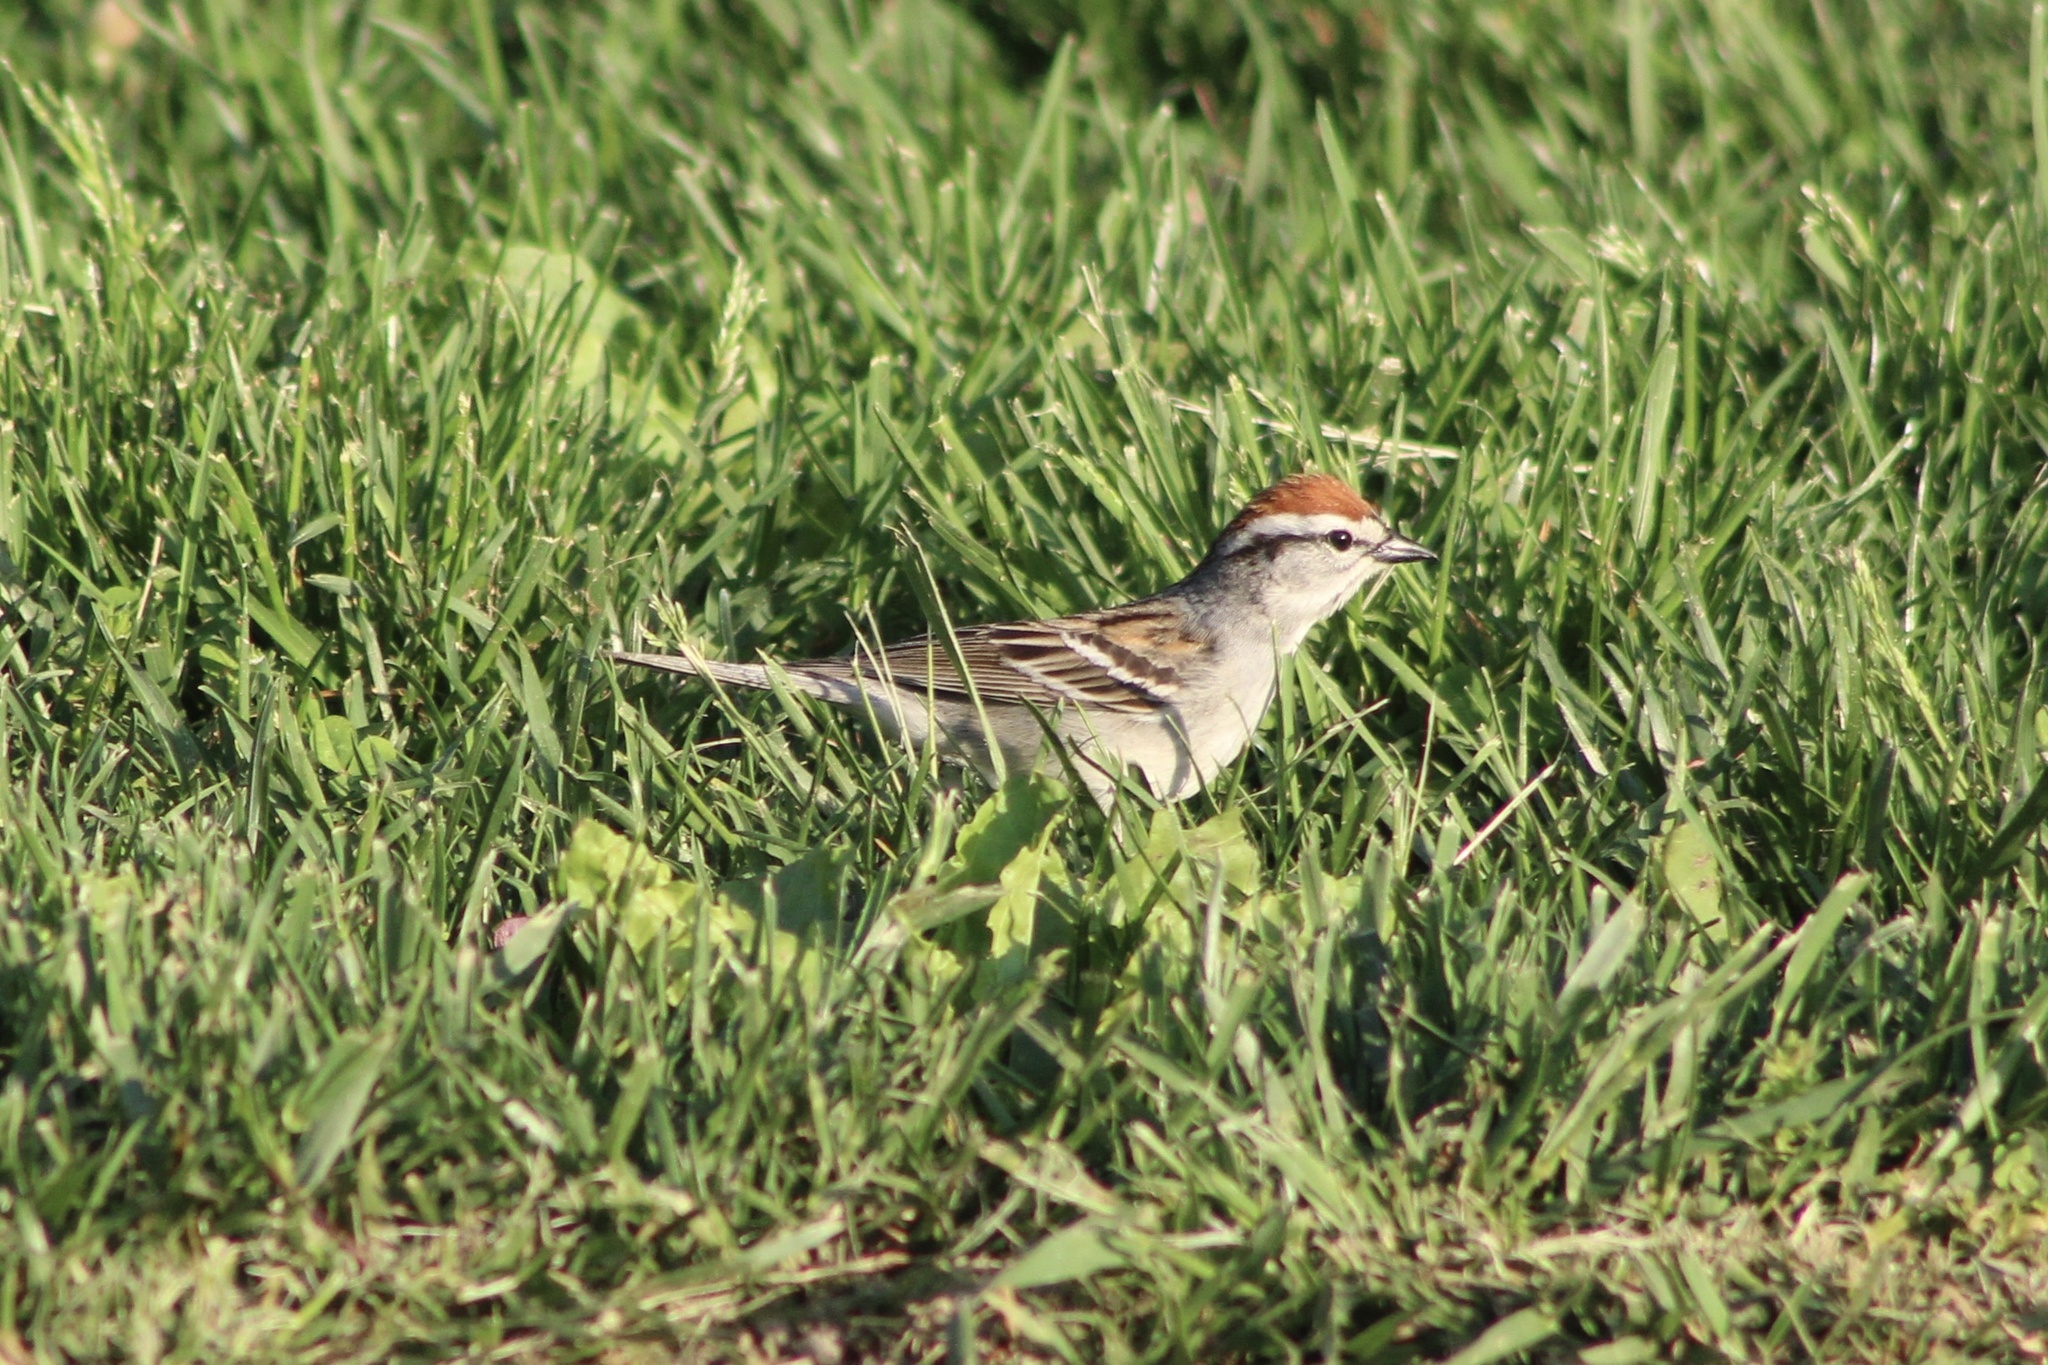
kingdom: Animalia
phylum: Chordata
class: Aves
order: Passeriformes
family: Passerellidae
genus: Spizella
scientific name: Spizella passerina
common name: Chipping sparrow
